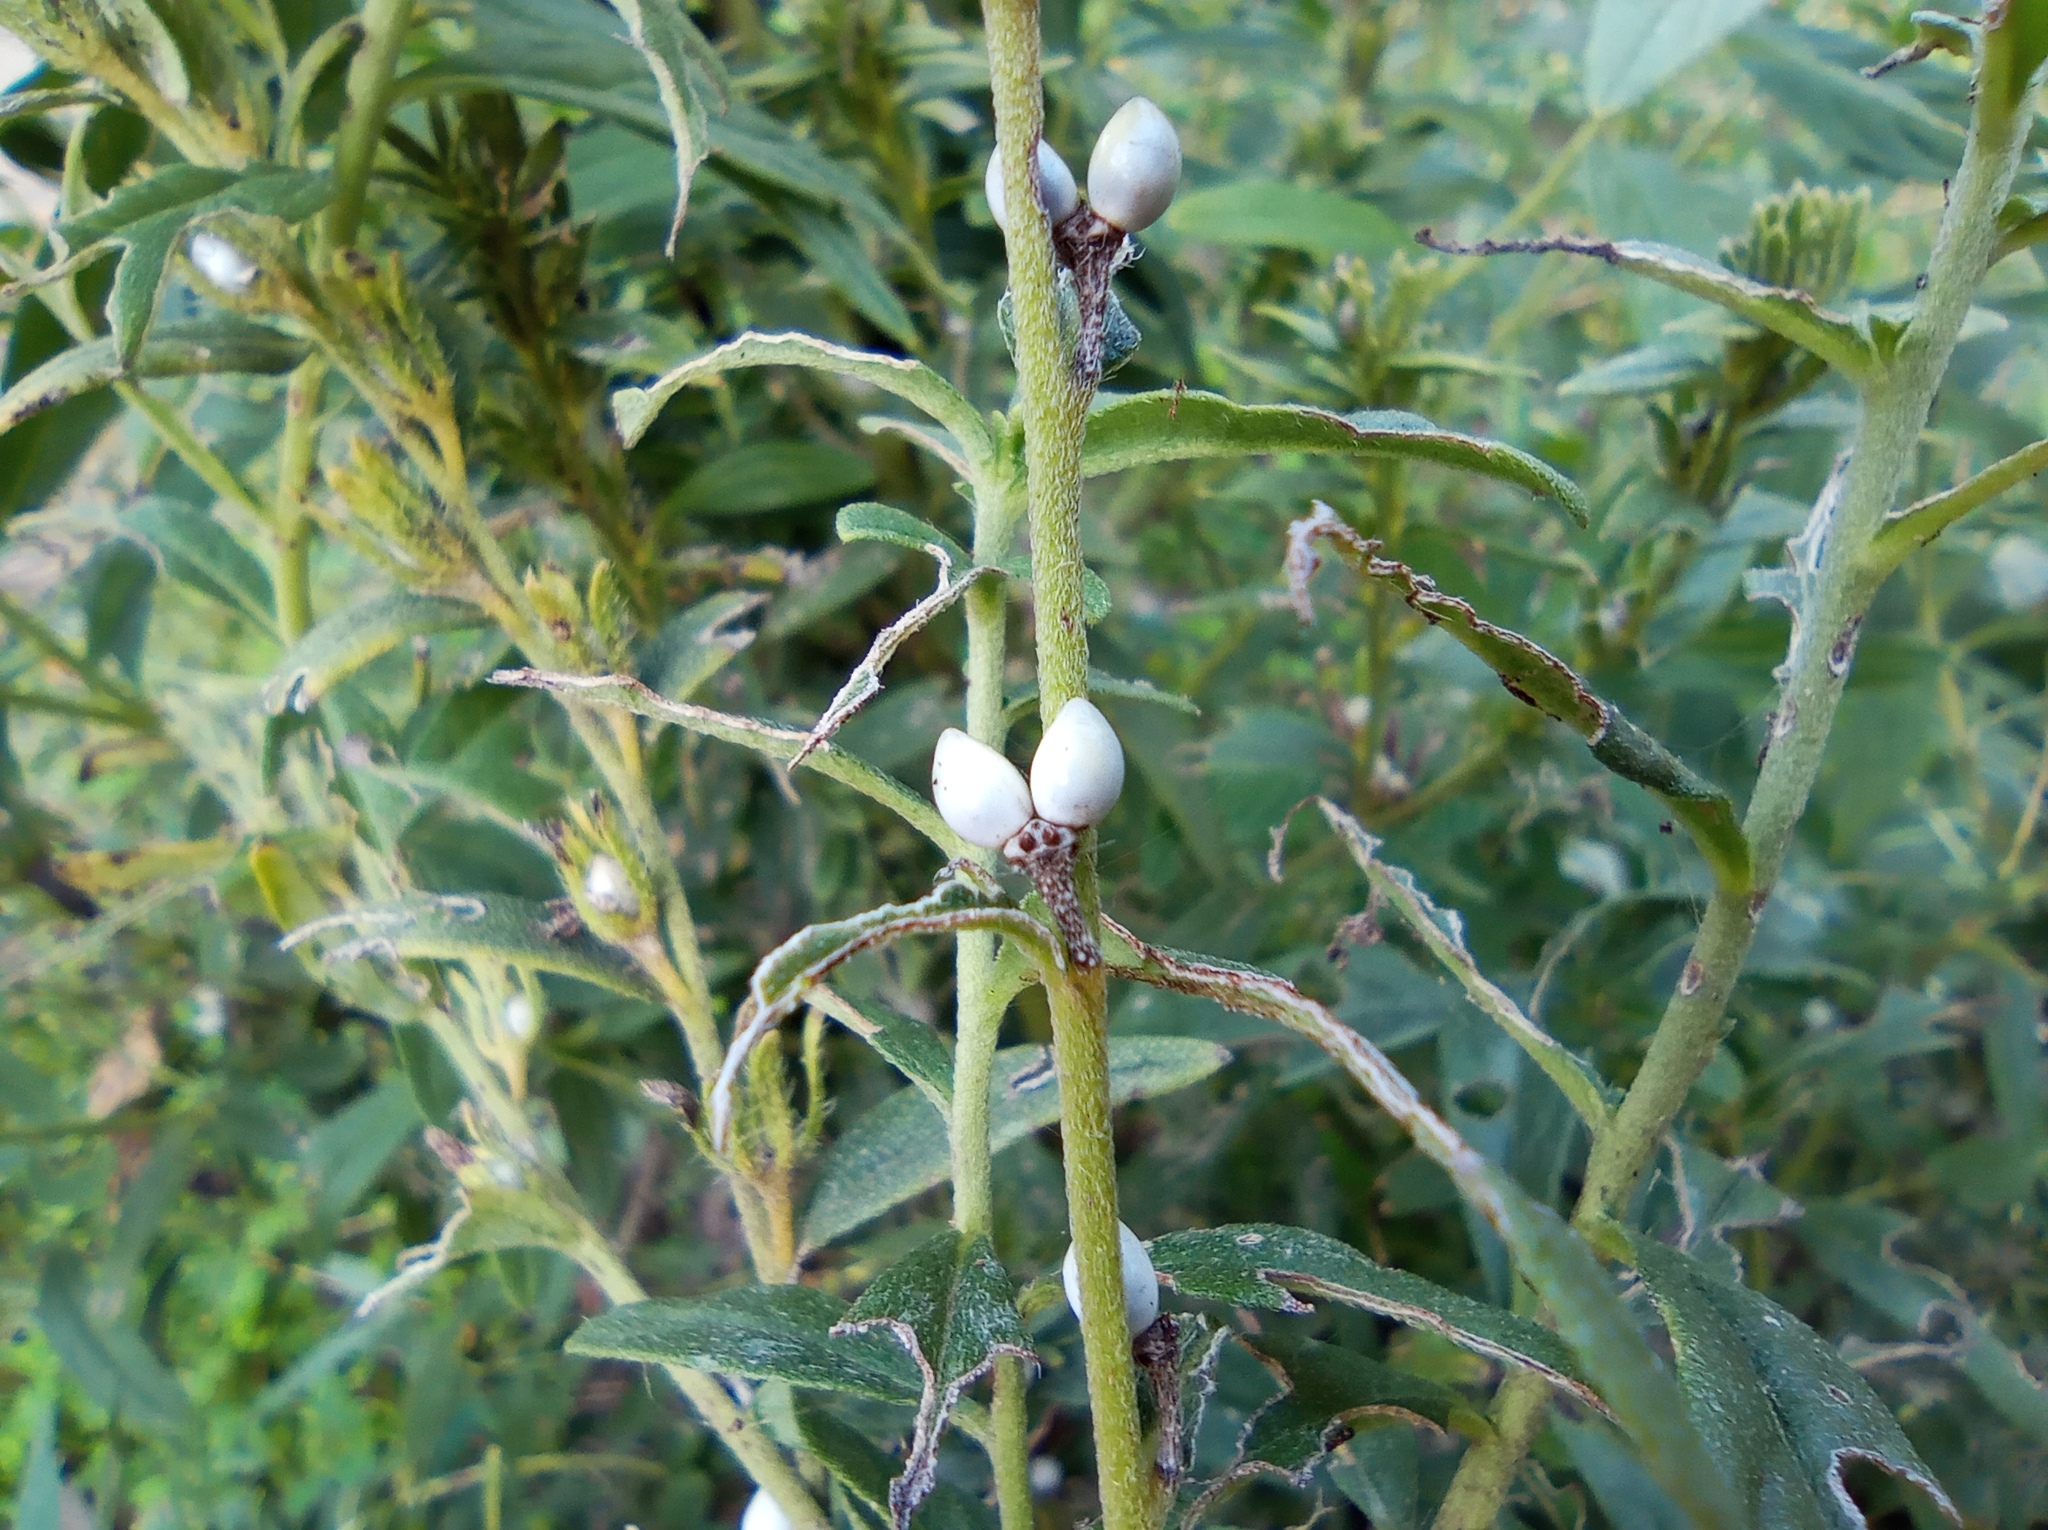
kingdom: Plantae
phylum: Tracheophyta
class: Magnoliopsida
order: Boraginales
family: Boraginaceae
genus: Lithospermum
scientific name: Lithospermum officinale
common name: Common gromwell
